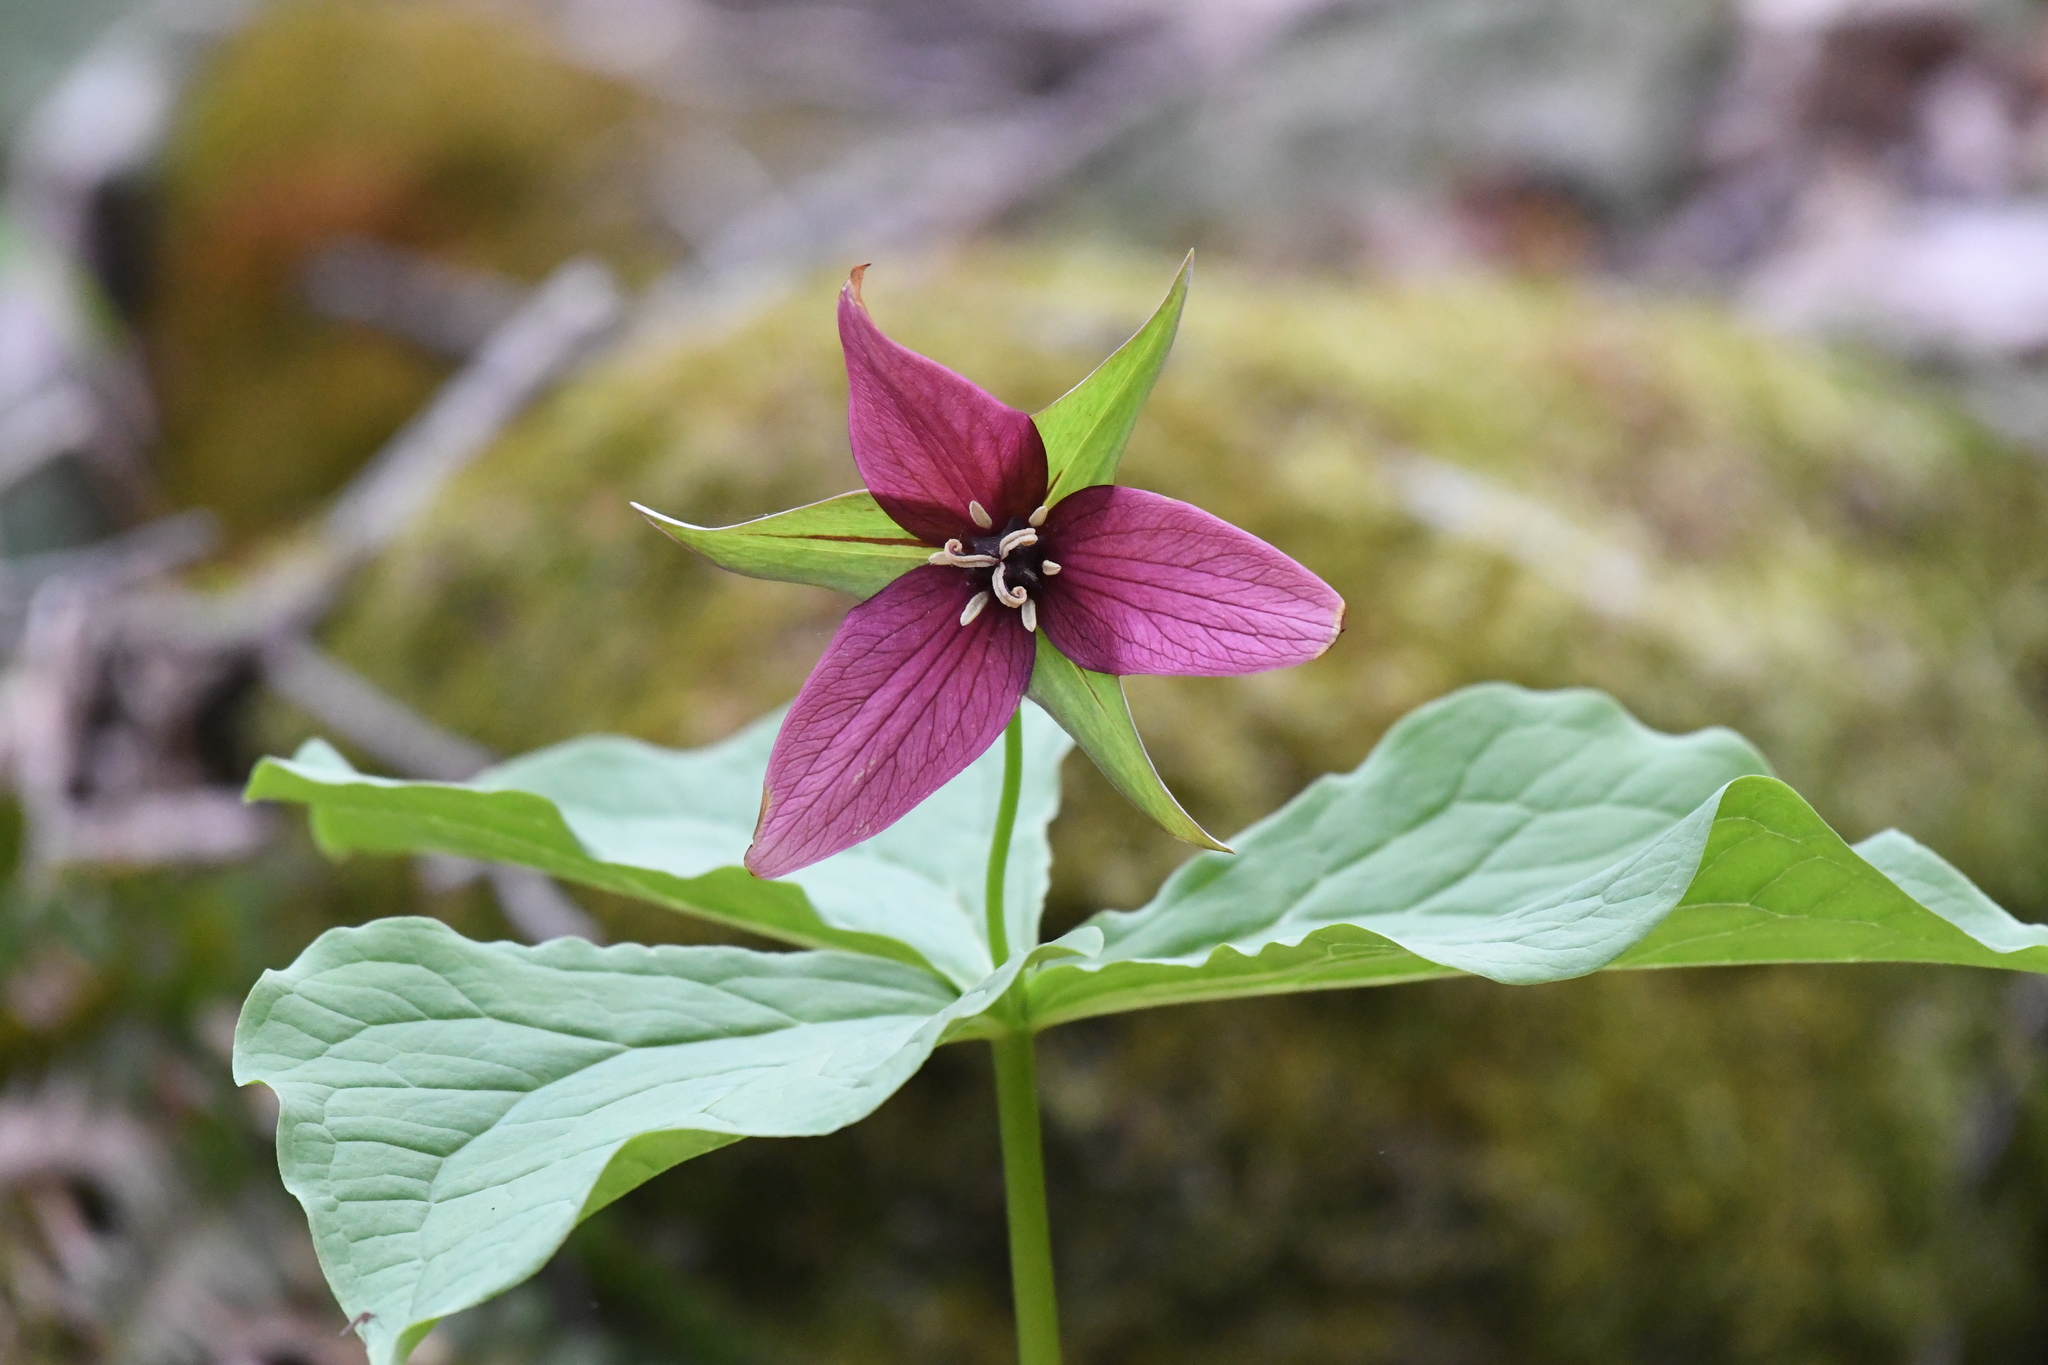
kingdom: Plantae
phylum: Tracheophyta
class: Liliopsida
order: Liliales
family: Melanthiaceae
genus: Trillium
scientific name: Trillium erectum
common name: Purple trillium
